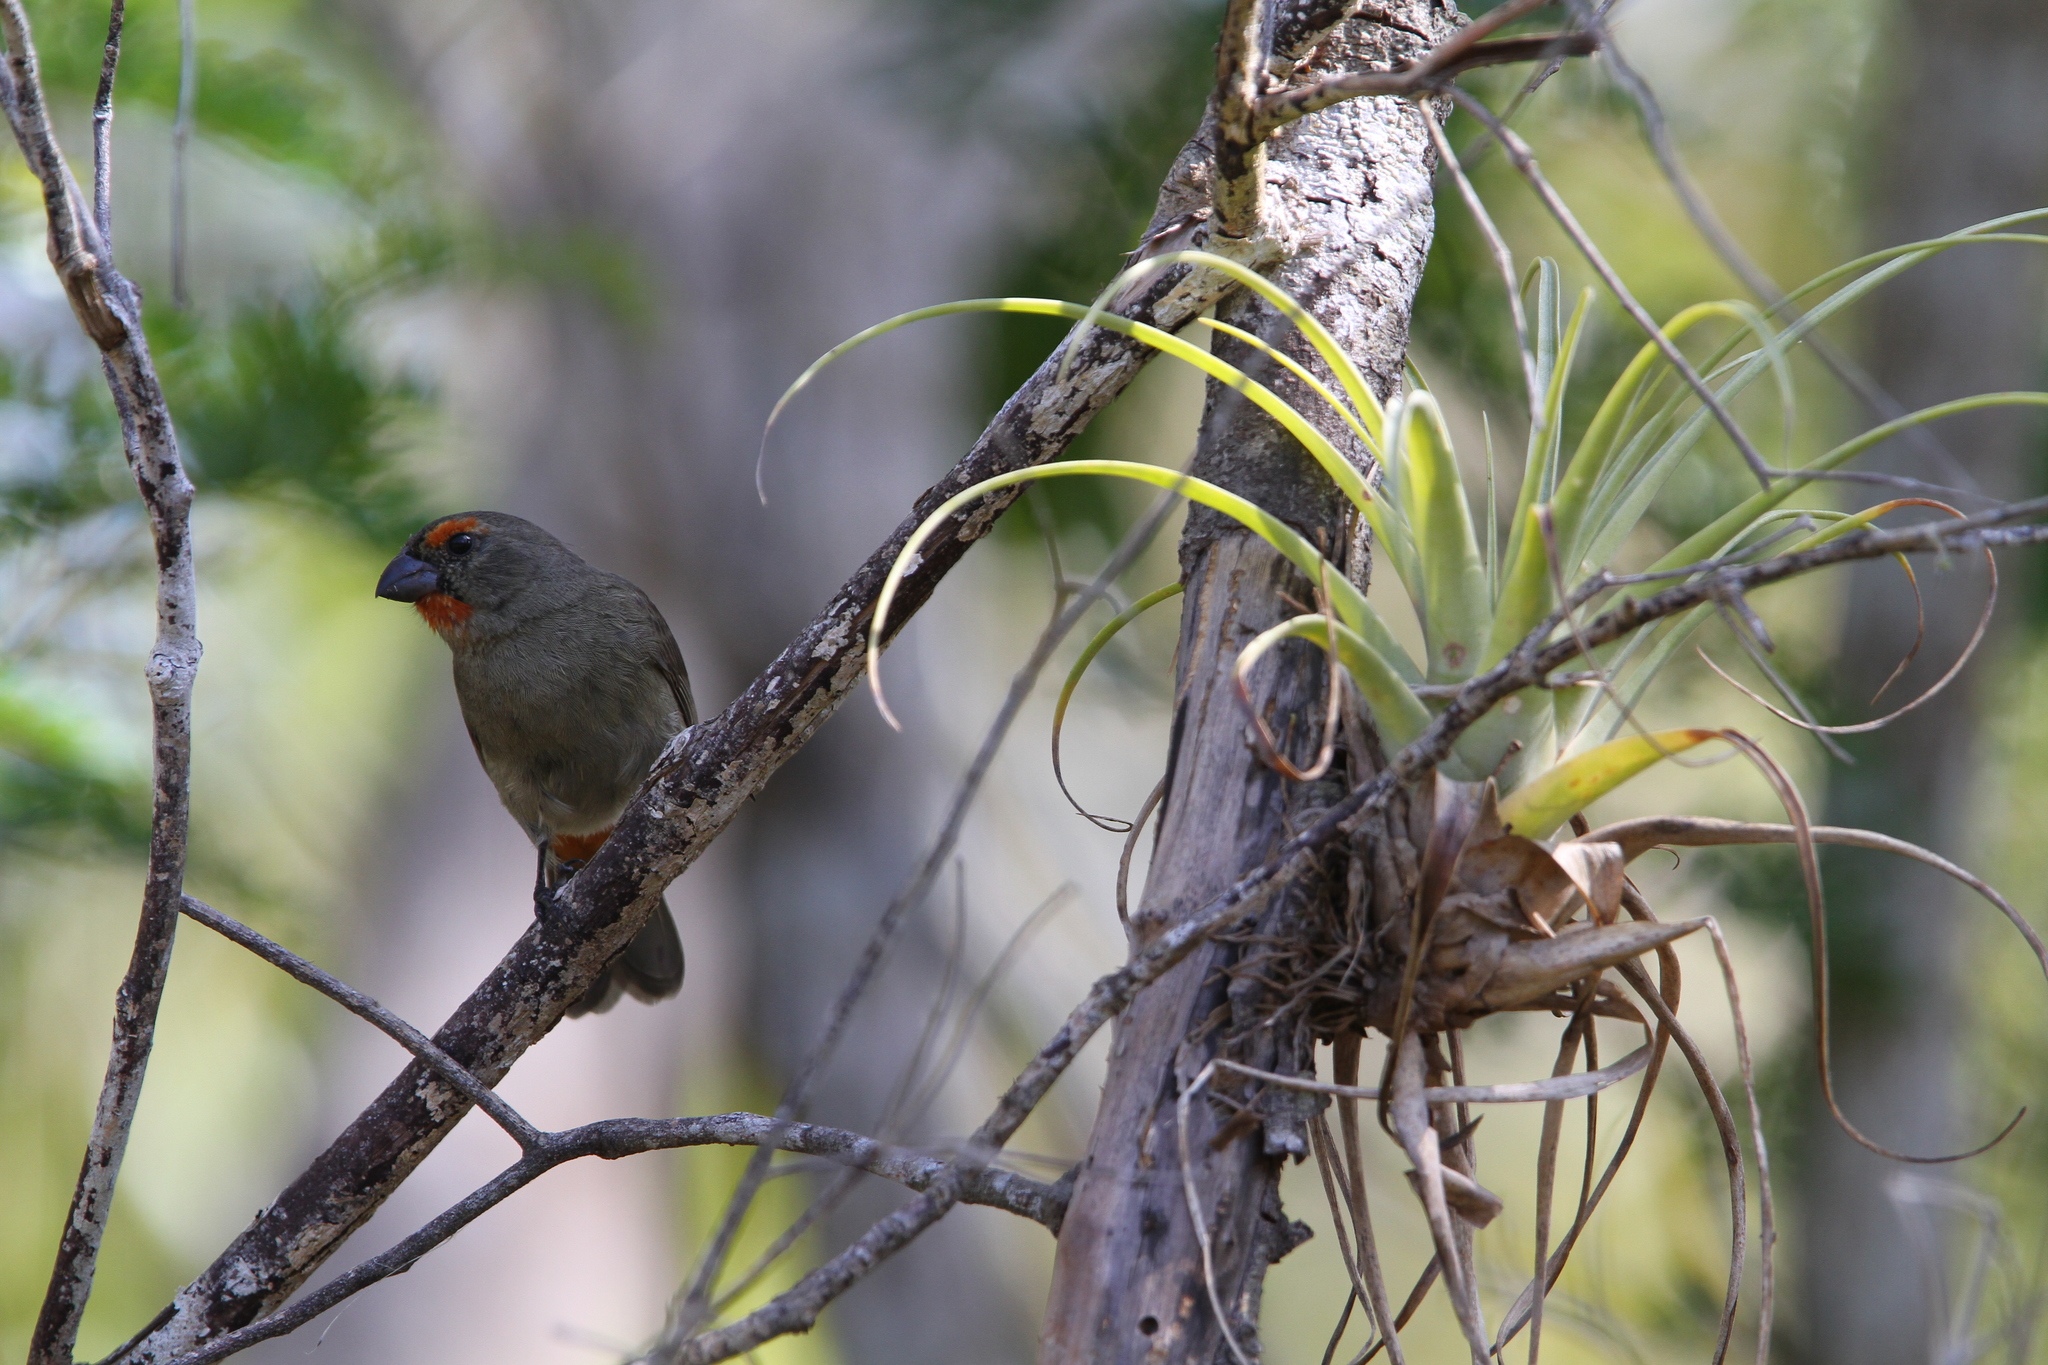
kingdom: Animalia
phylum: Chordata
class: Aves
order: Passeriformes
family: Thraupidae
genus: Melopyrrha
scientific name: Melopyrrha violacea
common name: Greater antillean bullfinch
